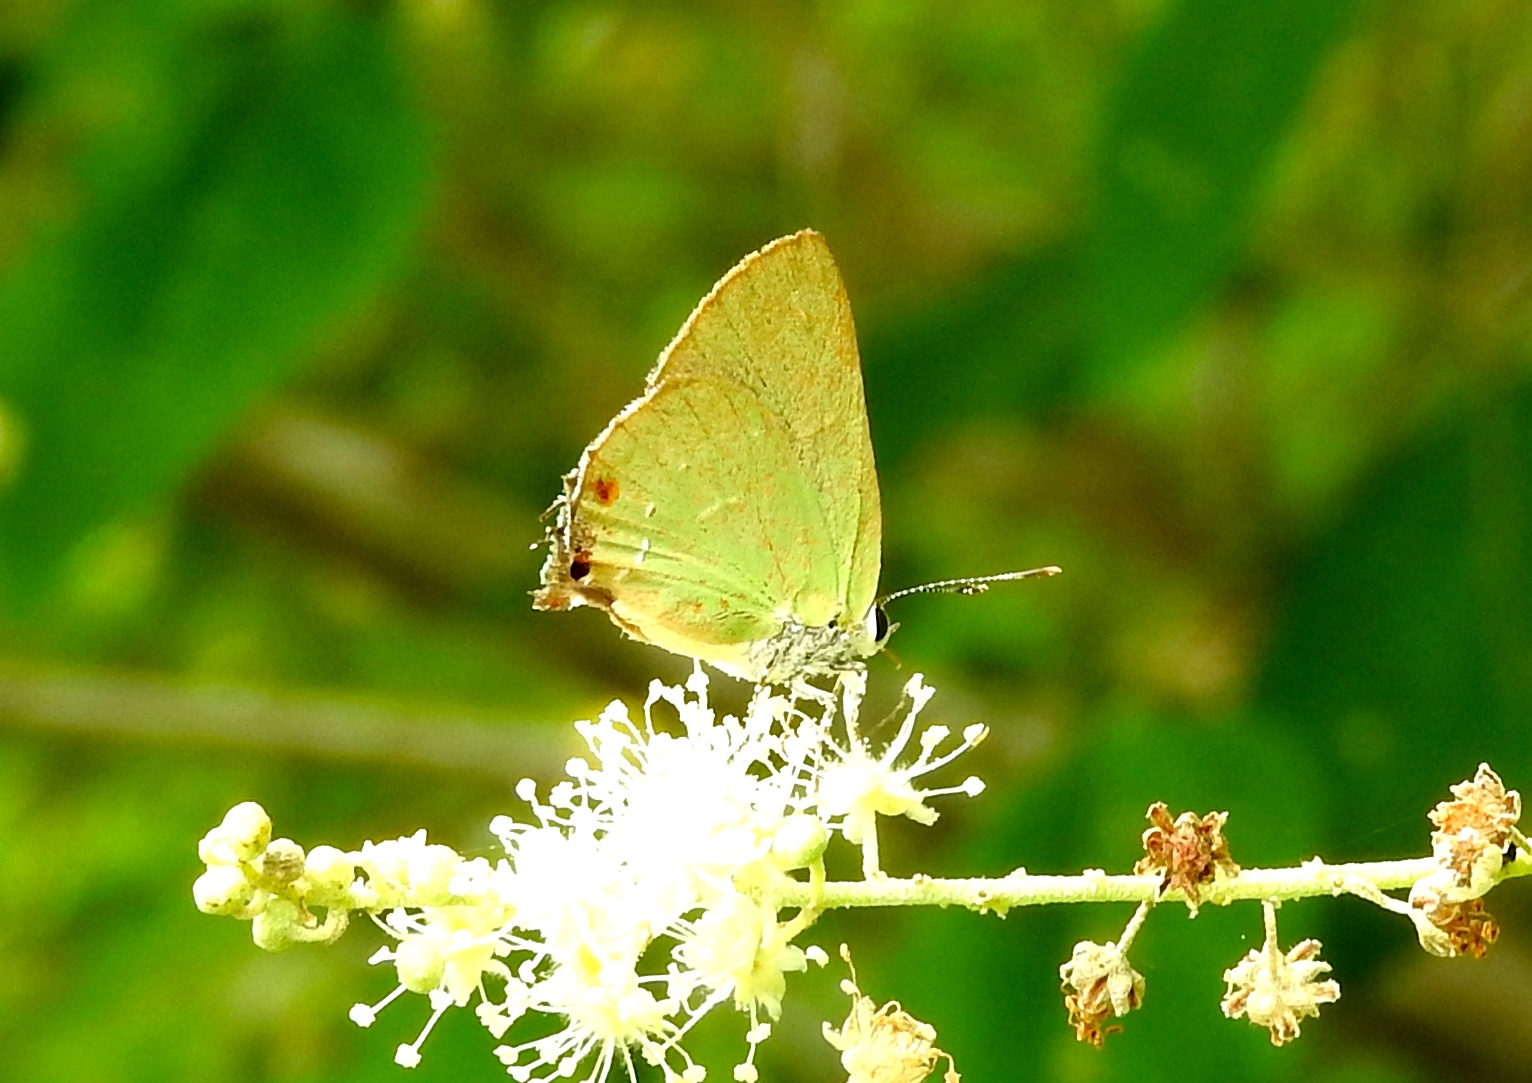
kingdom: Animalia
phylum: Arthropoda
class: Insecta
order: Lepidoptera
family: Lycaenidae
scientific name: Lycaenidae
